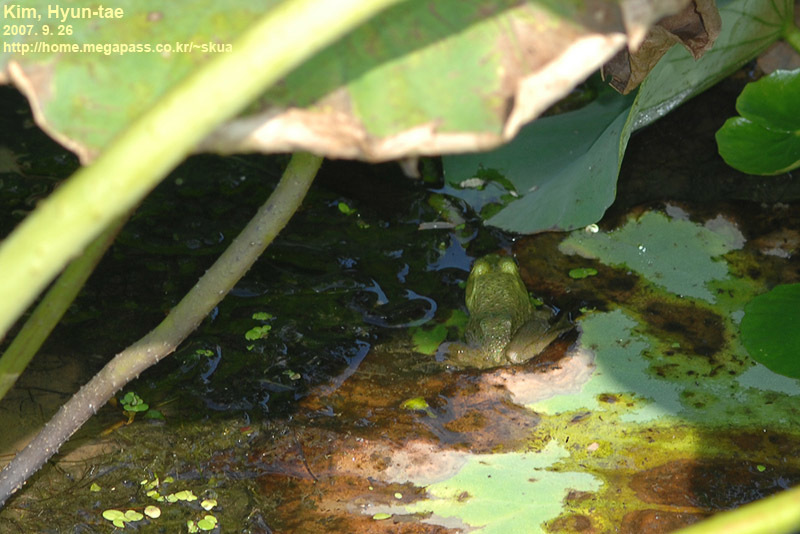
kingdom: Animalia
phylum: Chordata
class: Amphibia
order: Anura
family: Ranidae
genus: Lithobates
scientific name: Lithobates catesbeianus
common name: American bullfrog
